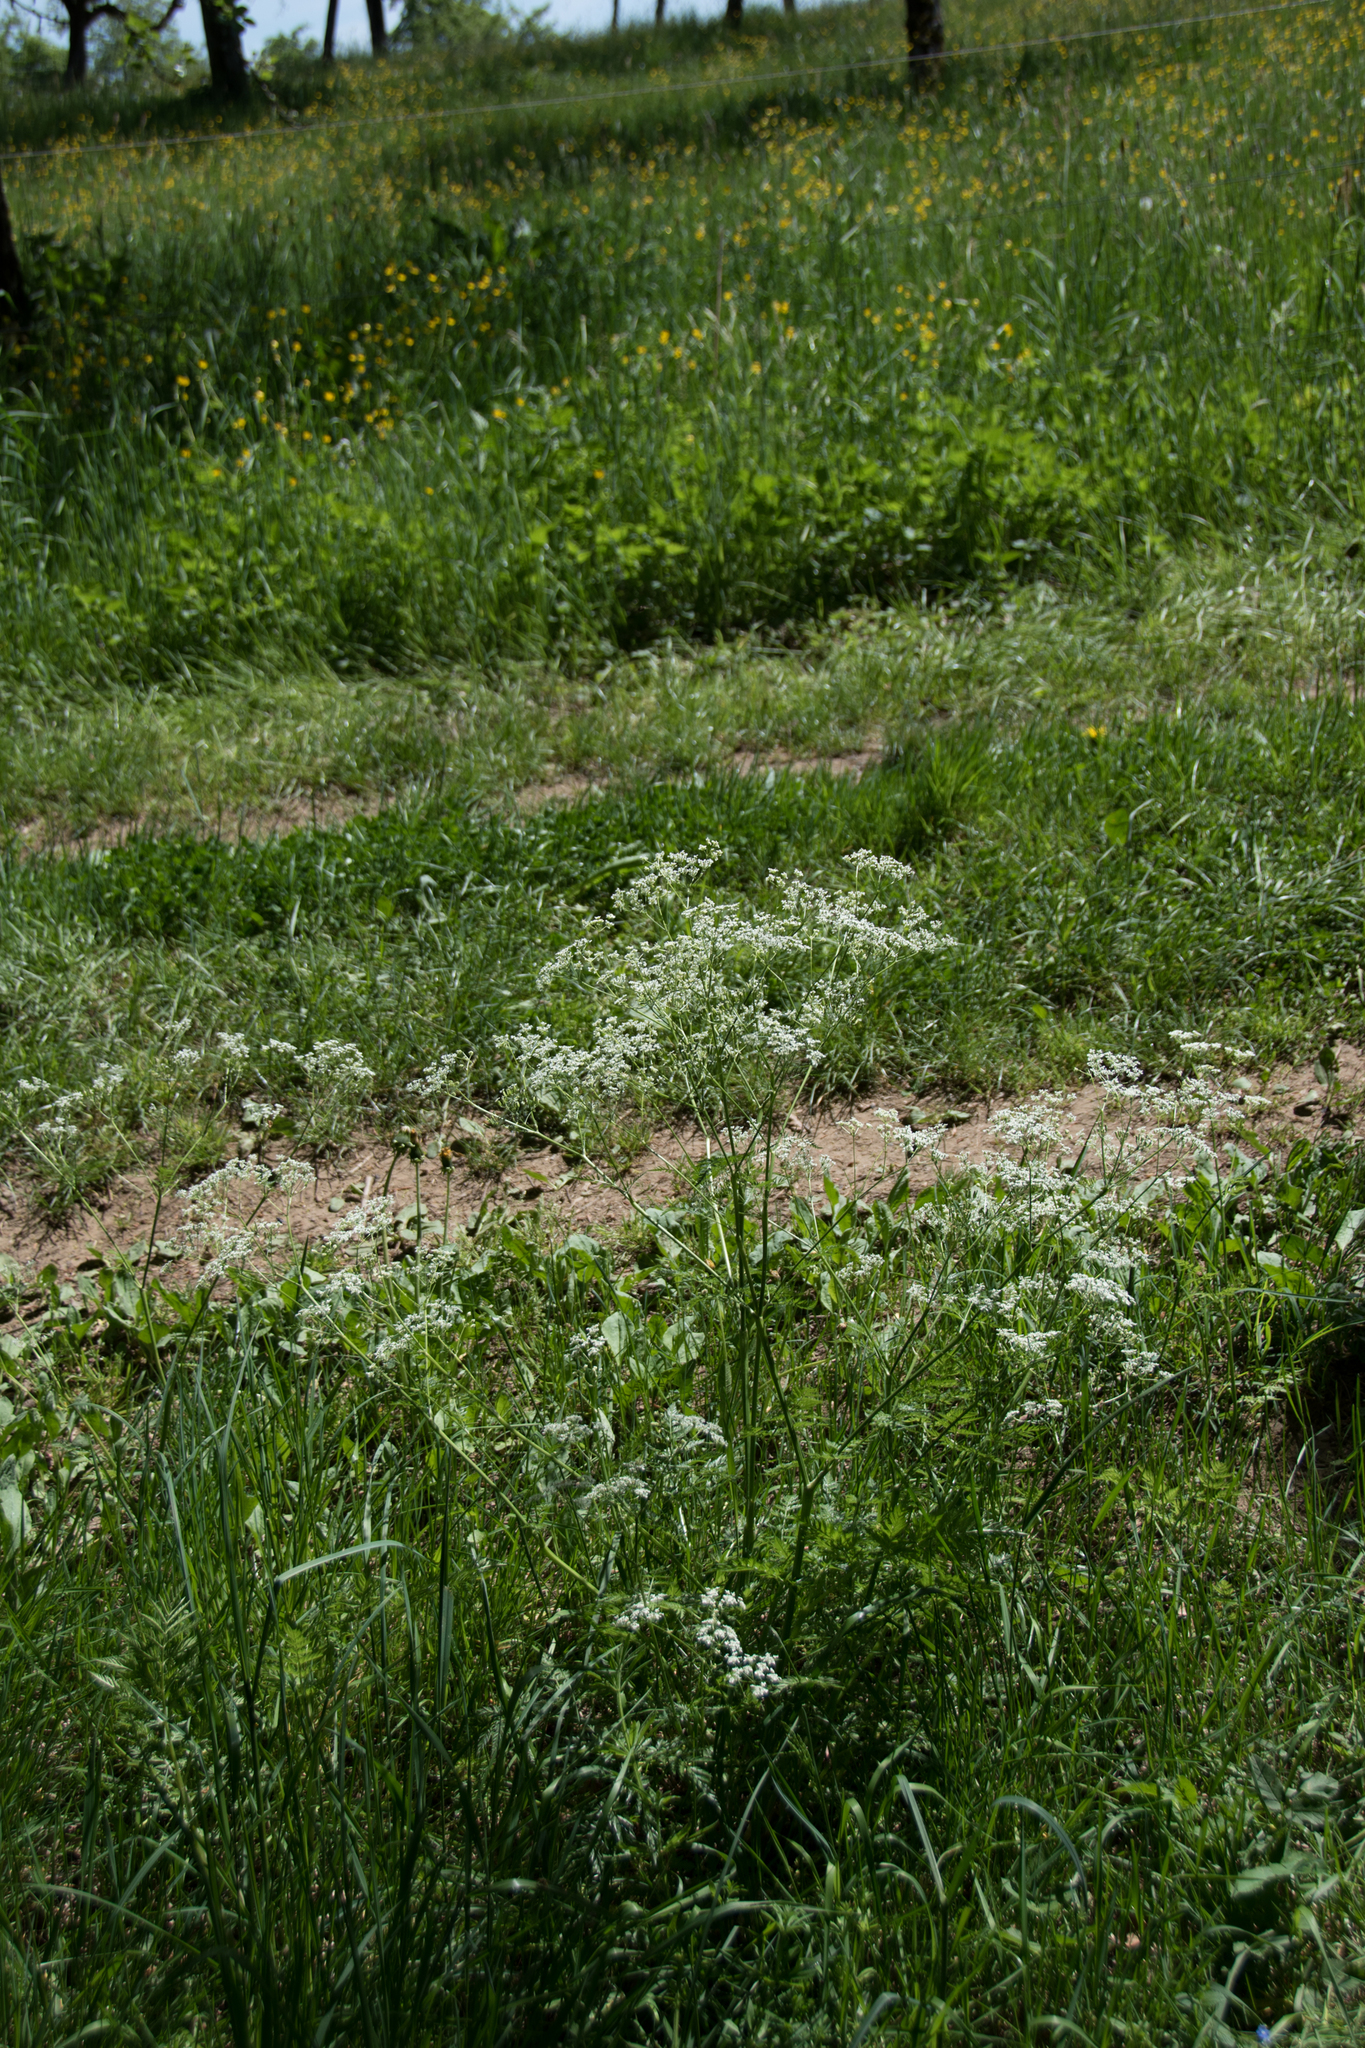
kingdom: Plantae
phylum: Tracheophyta
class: Magnoliopsida
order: Apiales
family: Apiaceae
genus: Anthriscus
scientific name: Anthriscus sylvestris
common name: Cow parsley
